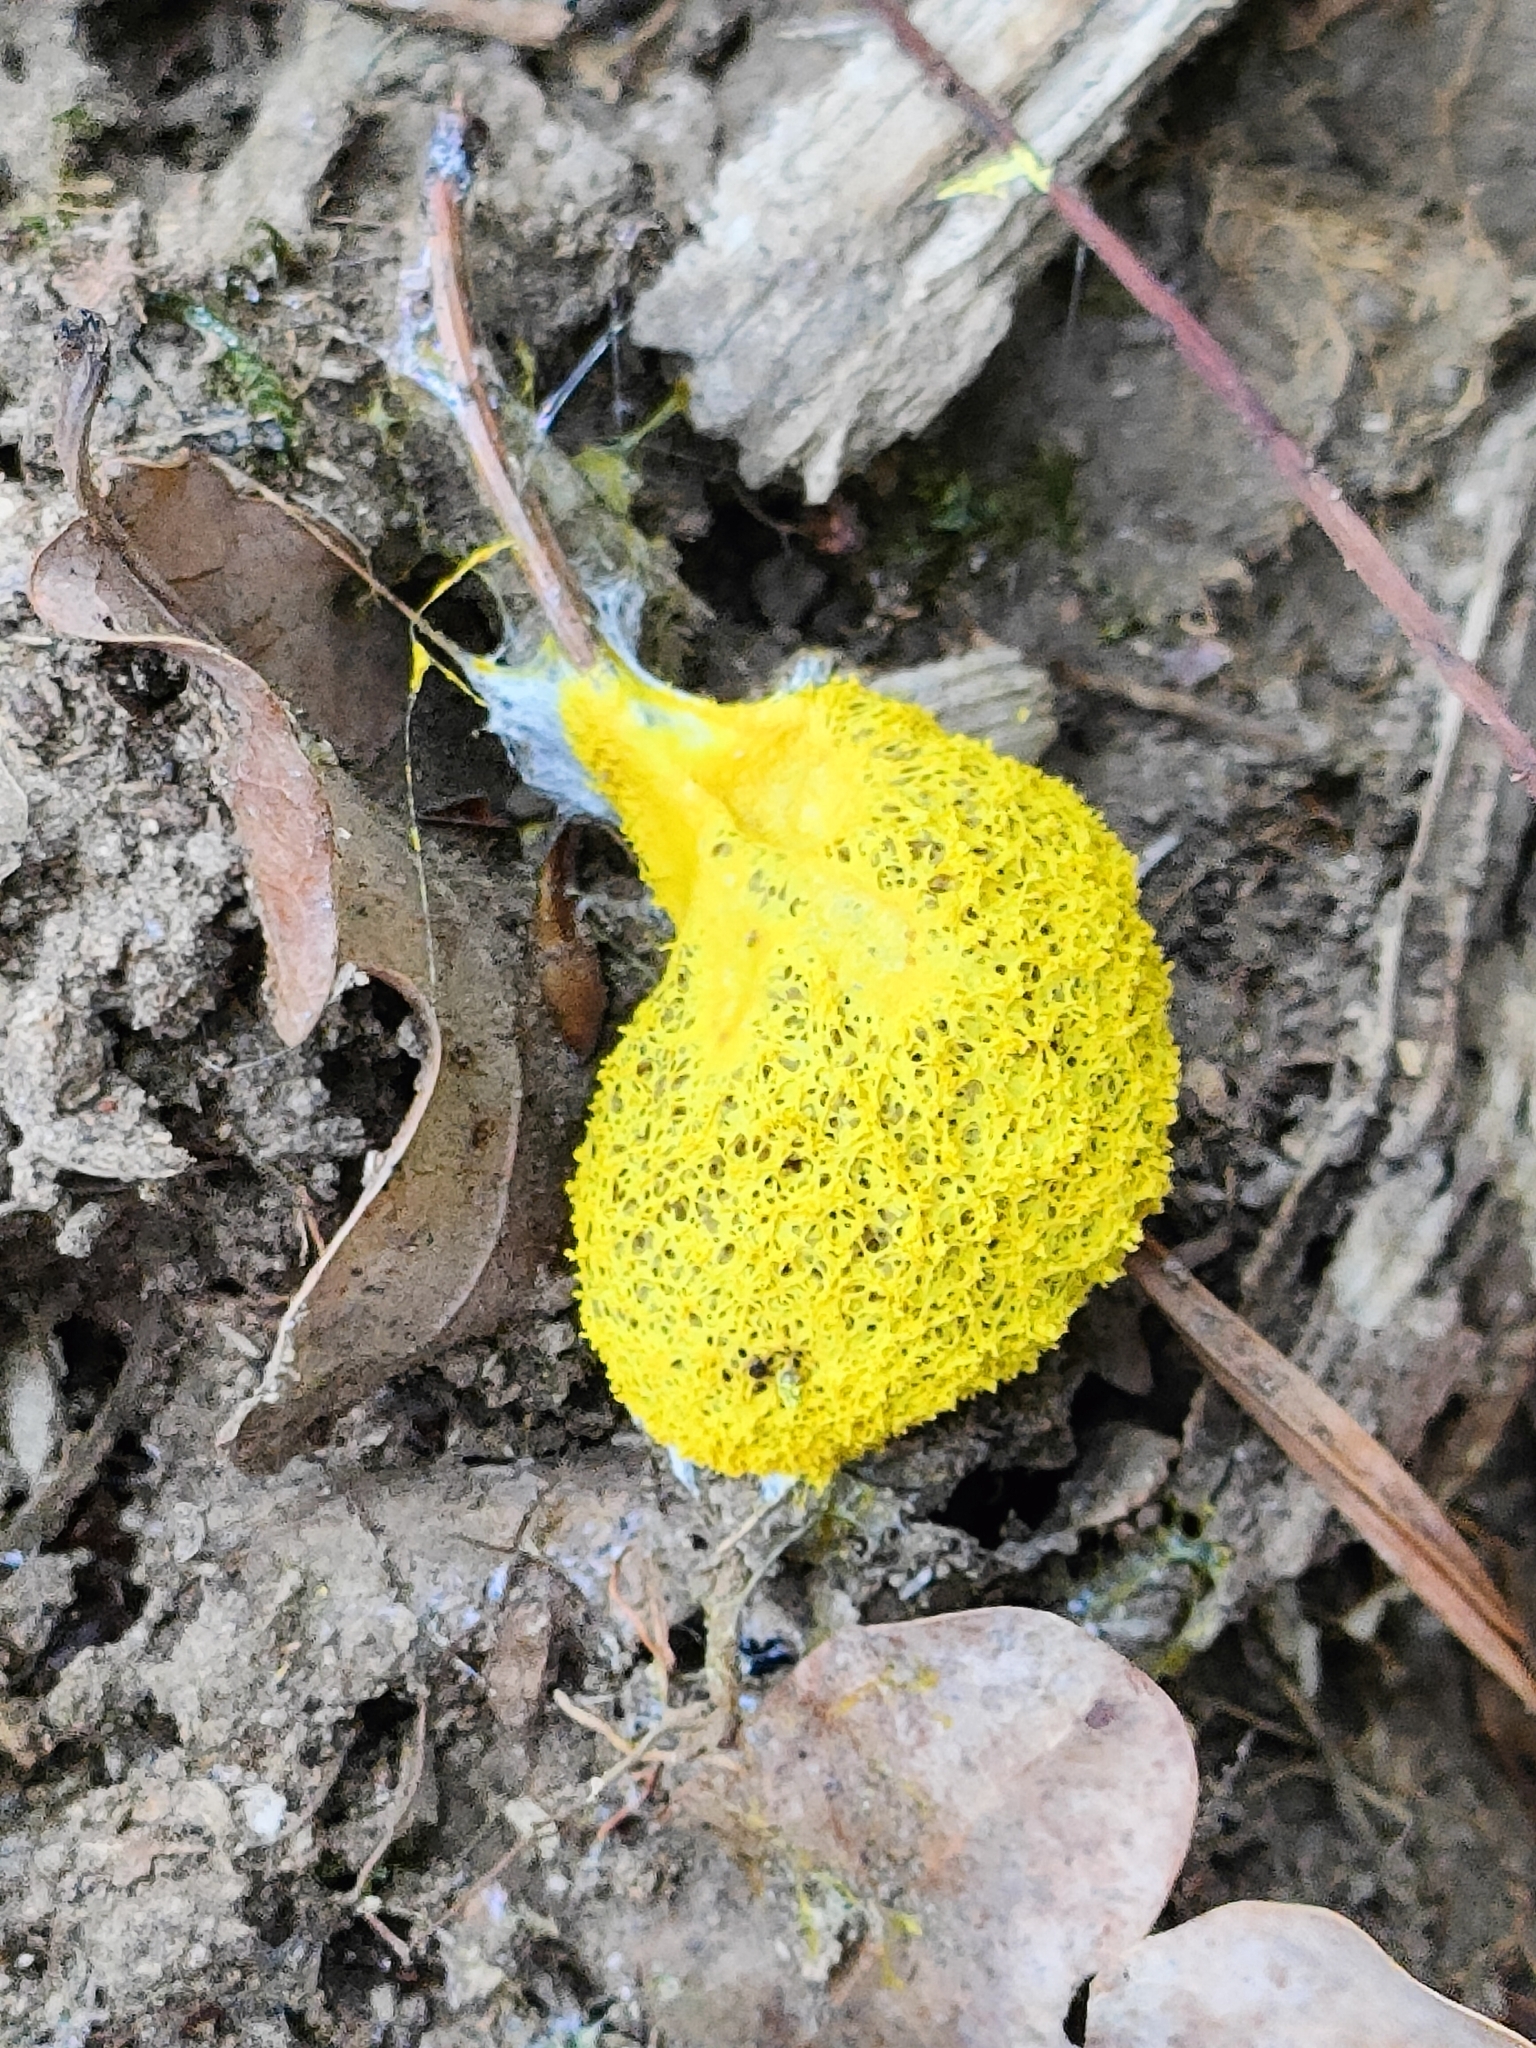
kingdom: Protozoa
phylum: Mycetozoa
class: Myxomycetes
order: Physarales
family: Physaraceae
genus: Fuligo
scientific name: Fuligo septica
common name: Dog vomit slime mold
